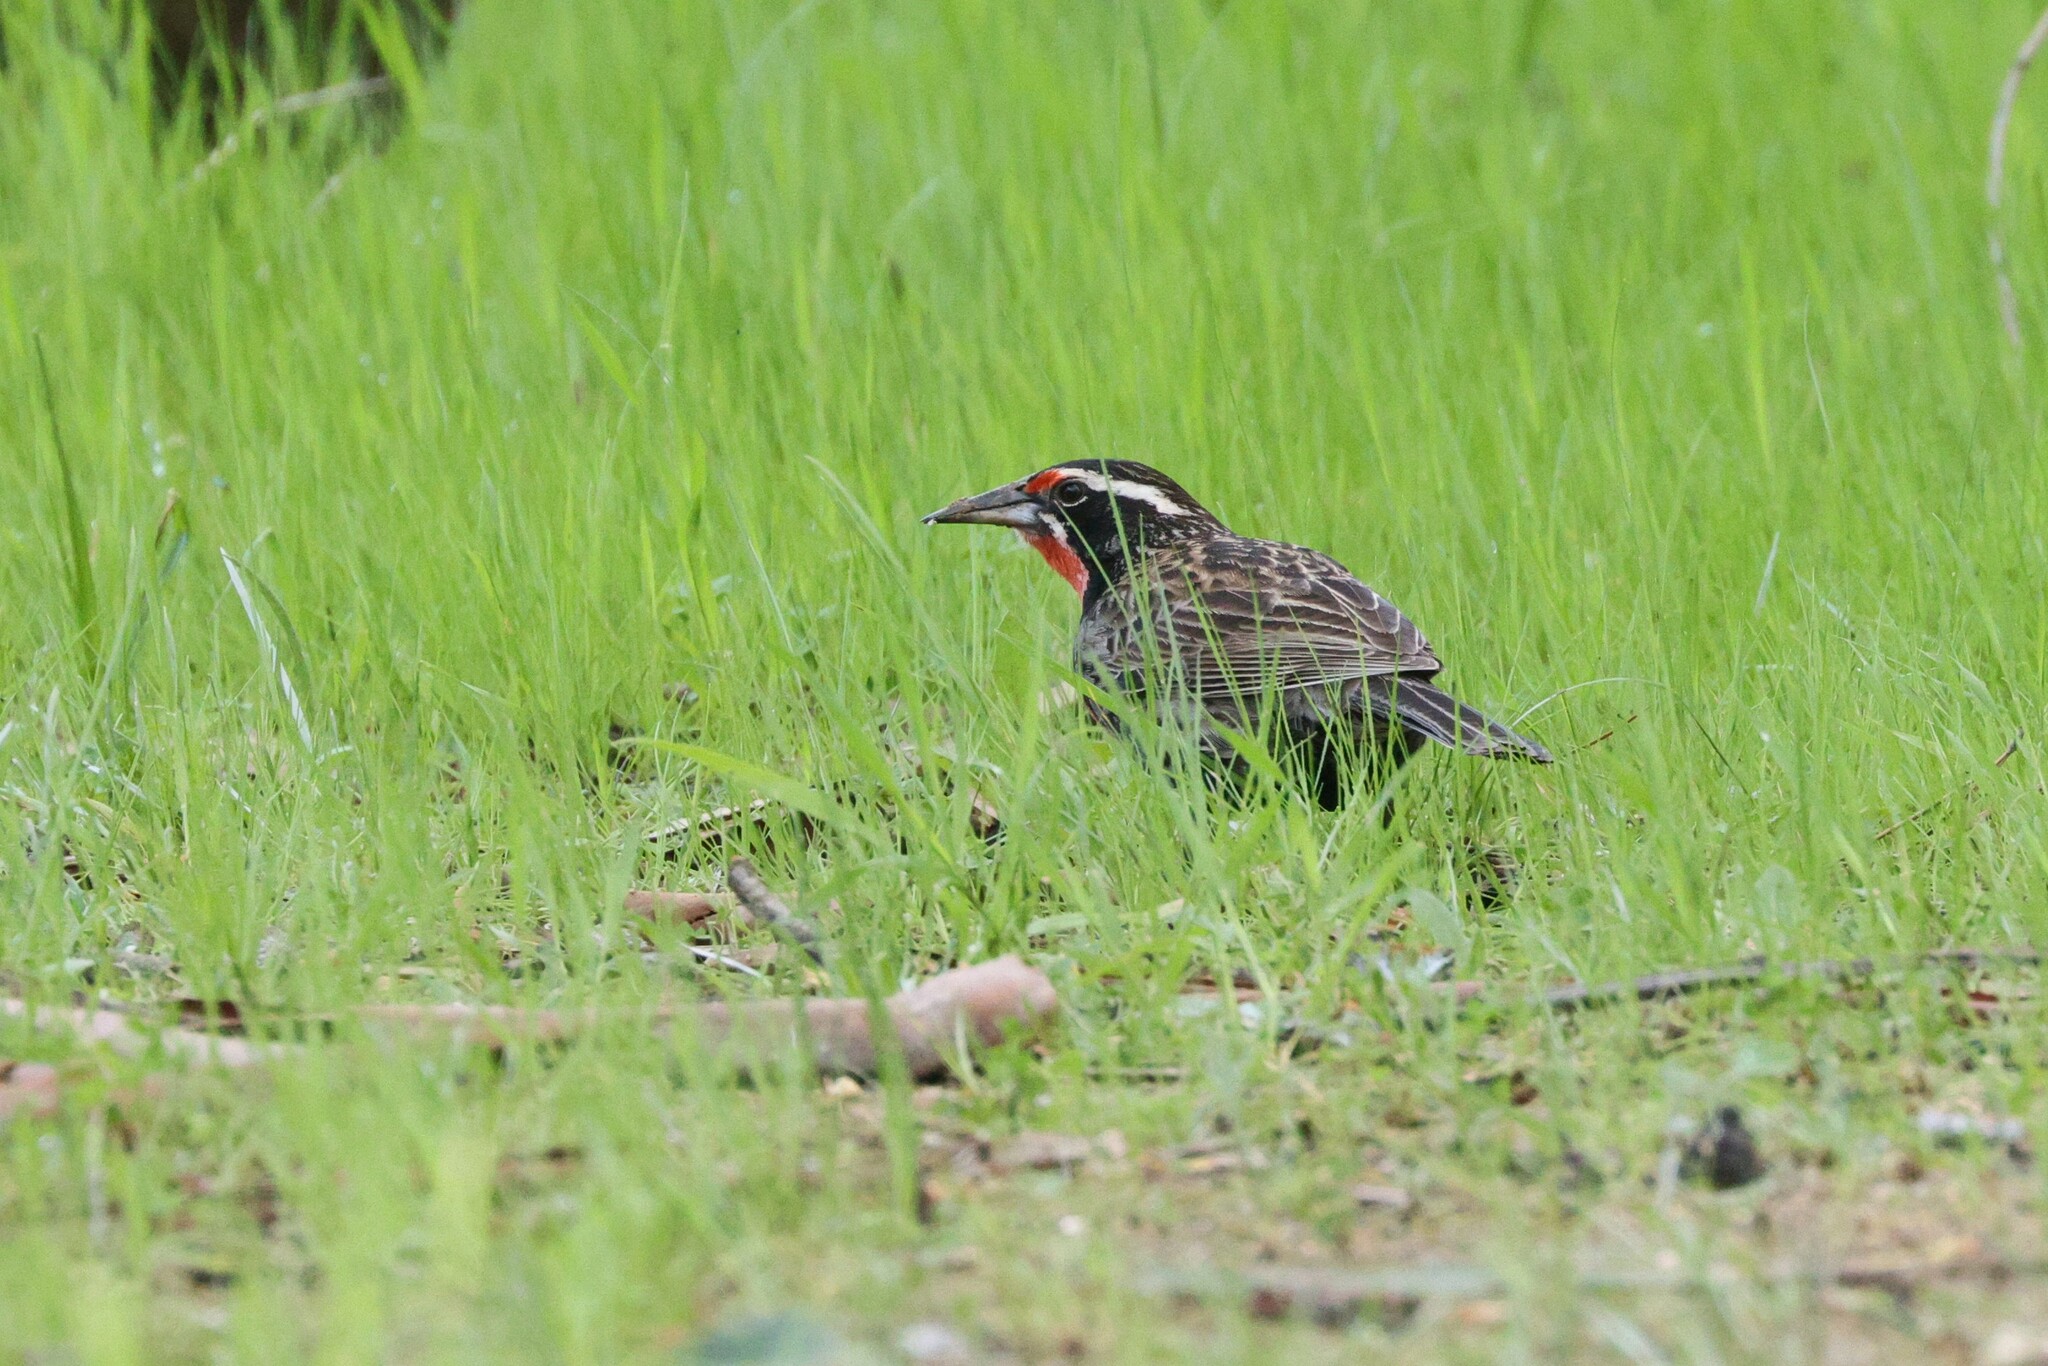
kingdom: Animalia
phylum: Chordata
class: Aves
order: Passeriformes
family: Icteridae
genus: Sturnella
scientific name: Sturnella loyca
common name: Long-tailed meadowlark
